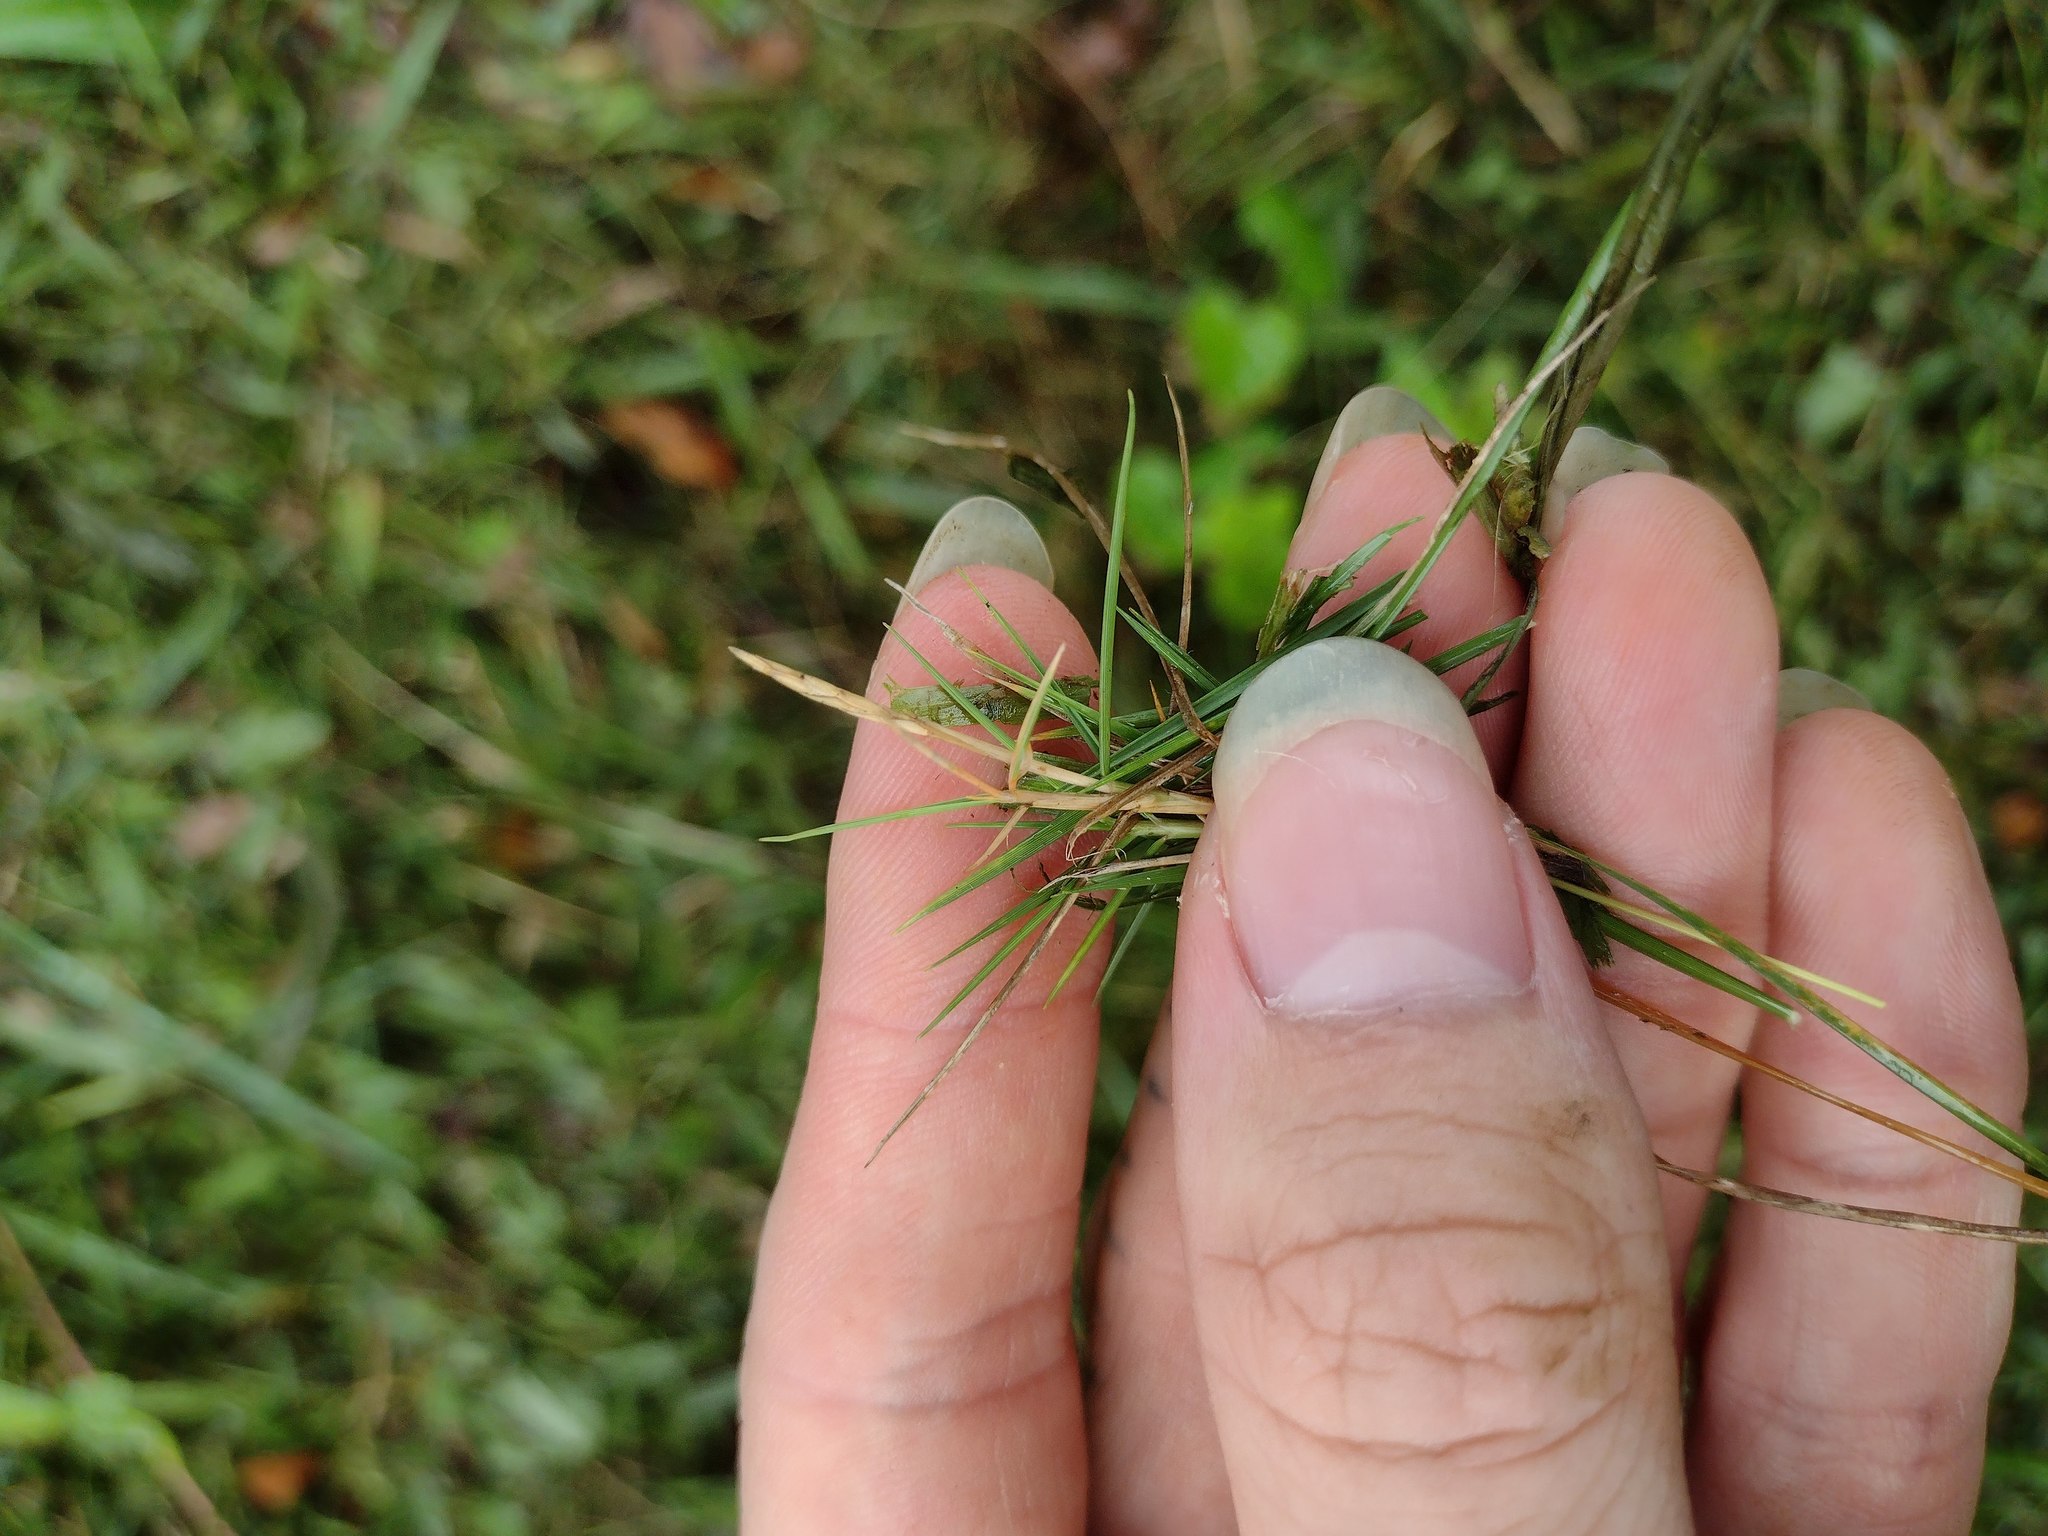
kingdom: Plantae
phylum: Tracheophyta
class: Liliopsida
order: Poales
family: Poaceae
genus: Zoysia
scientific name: Zoysia matrella
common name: Manila grass
